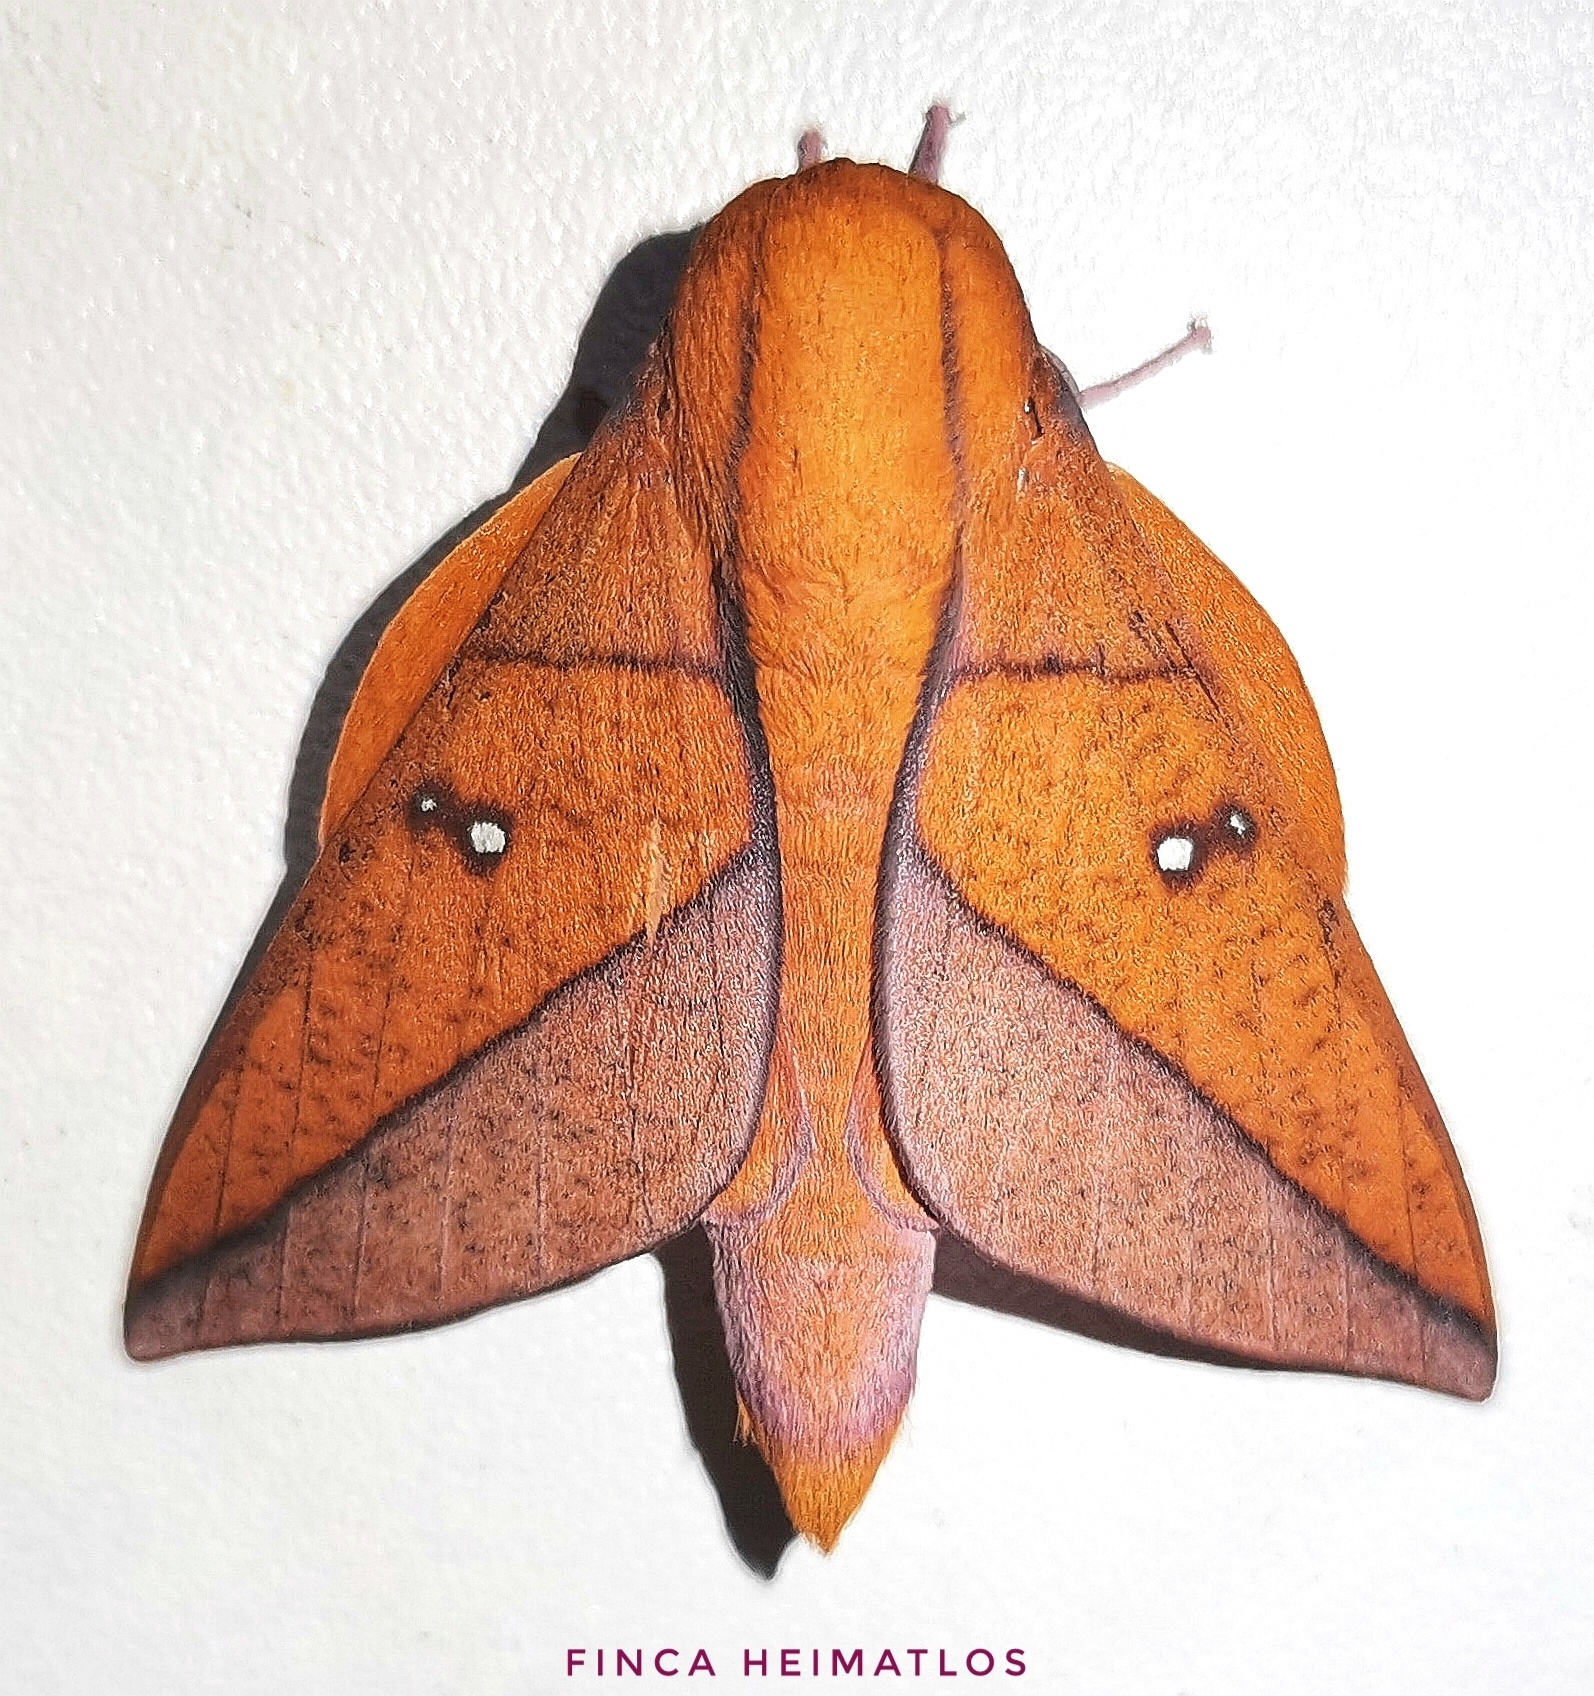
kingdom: Animalia
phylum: Arthropoda
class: Insecta
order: Lepidoptera
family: Saturniidae
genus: Adeloneivaia
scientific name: Adeloneivaia boisduvalii
